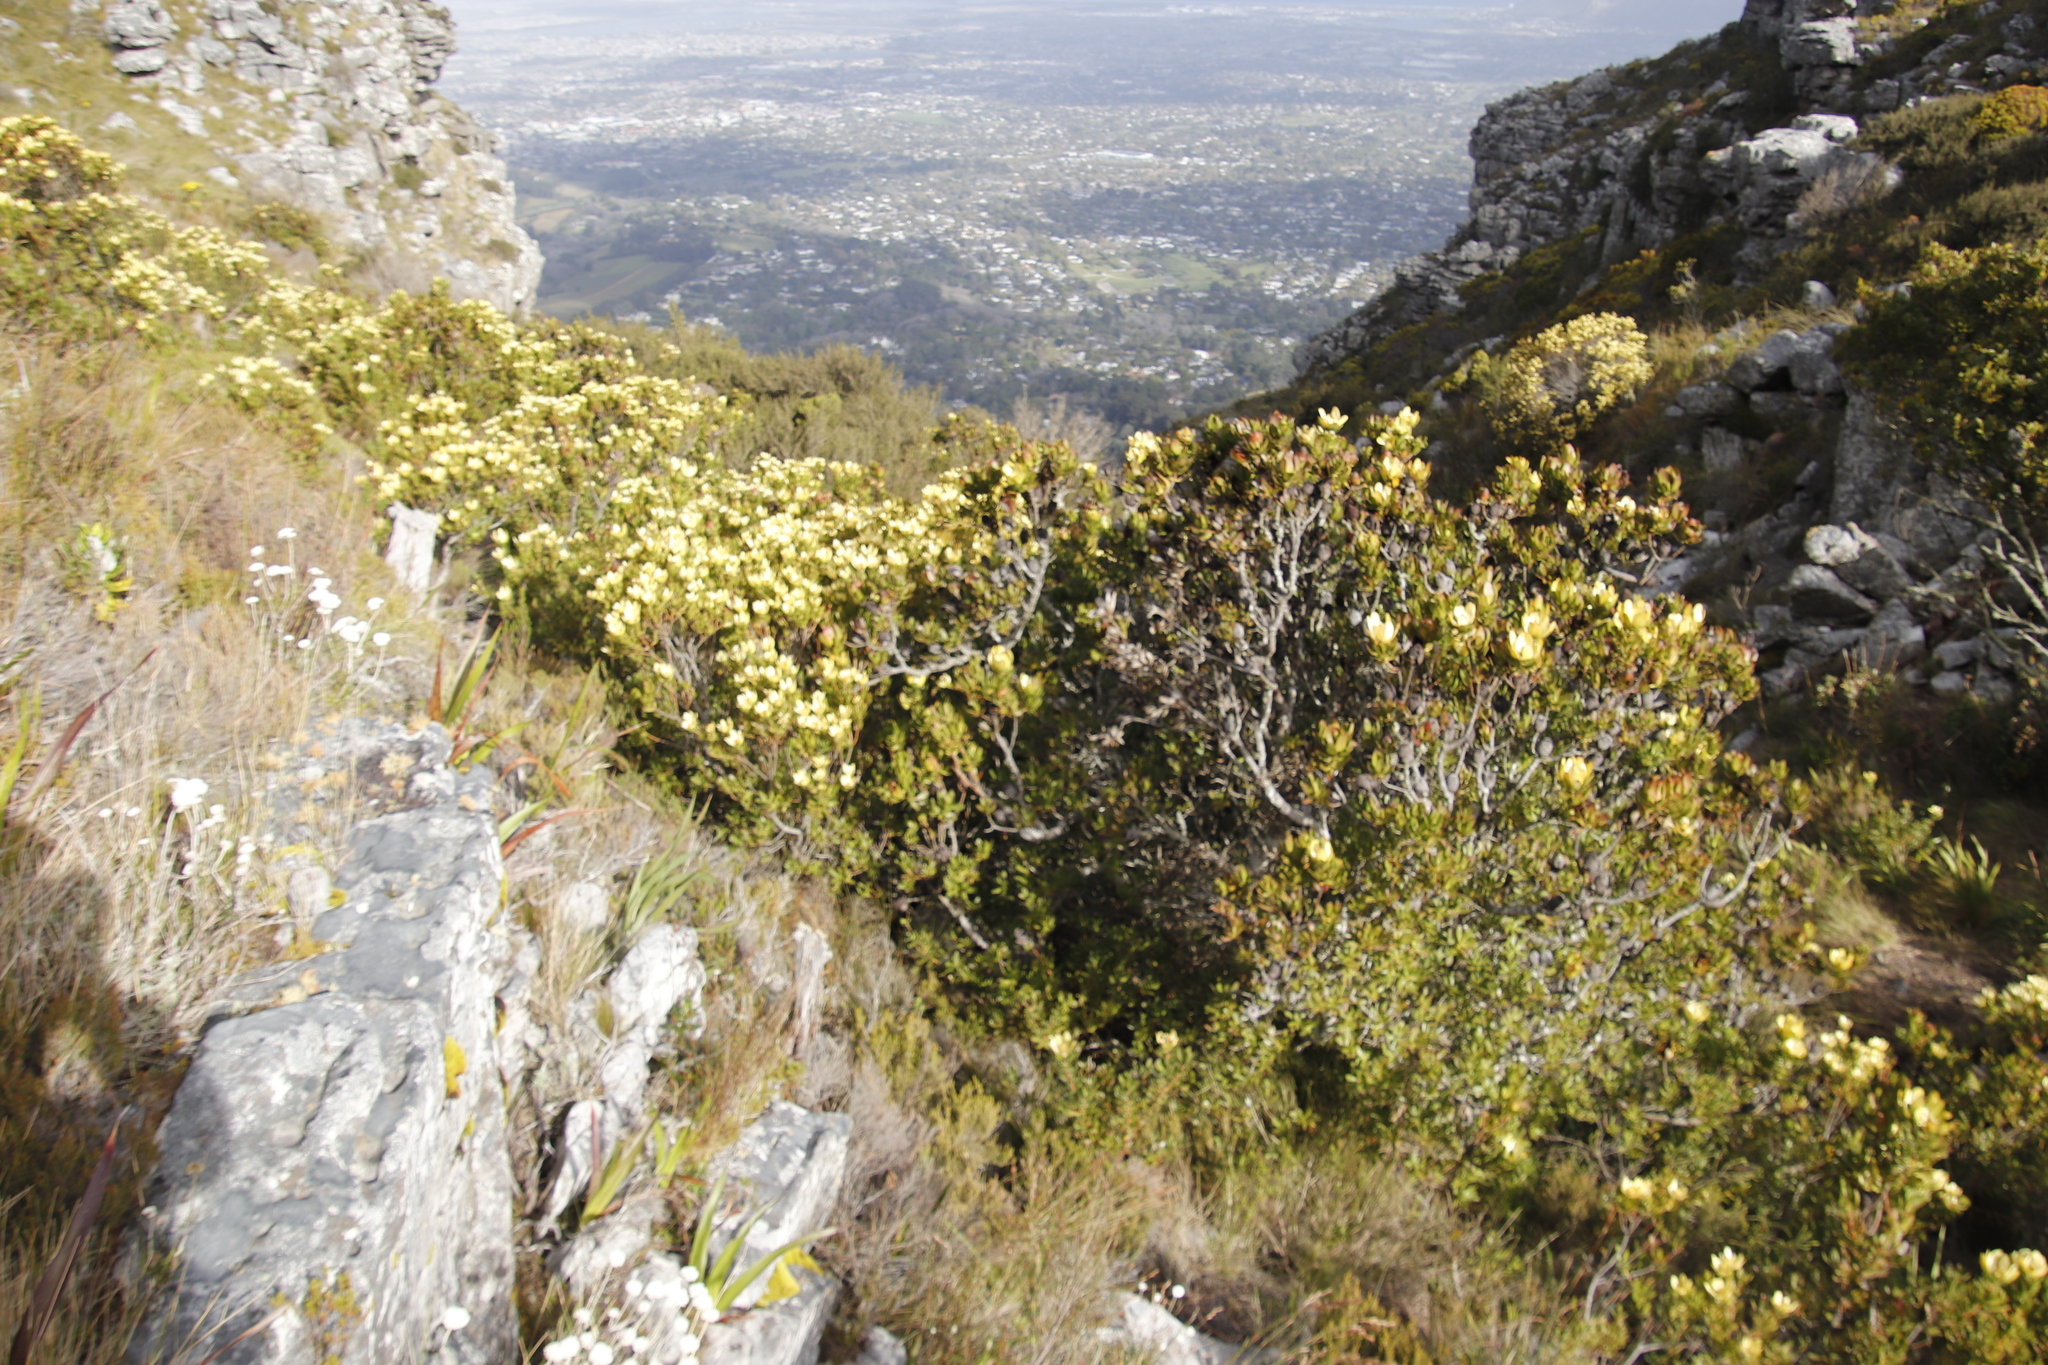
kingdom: Plantae
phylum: Tracheophyta
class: Magnoliopsida
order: Proteales
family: Proteaceae
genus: Leucadendron
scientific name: Leucadendron strobilinum
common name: Mountain rose
